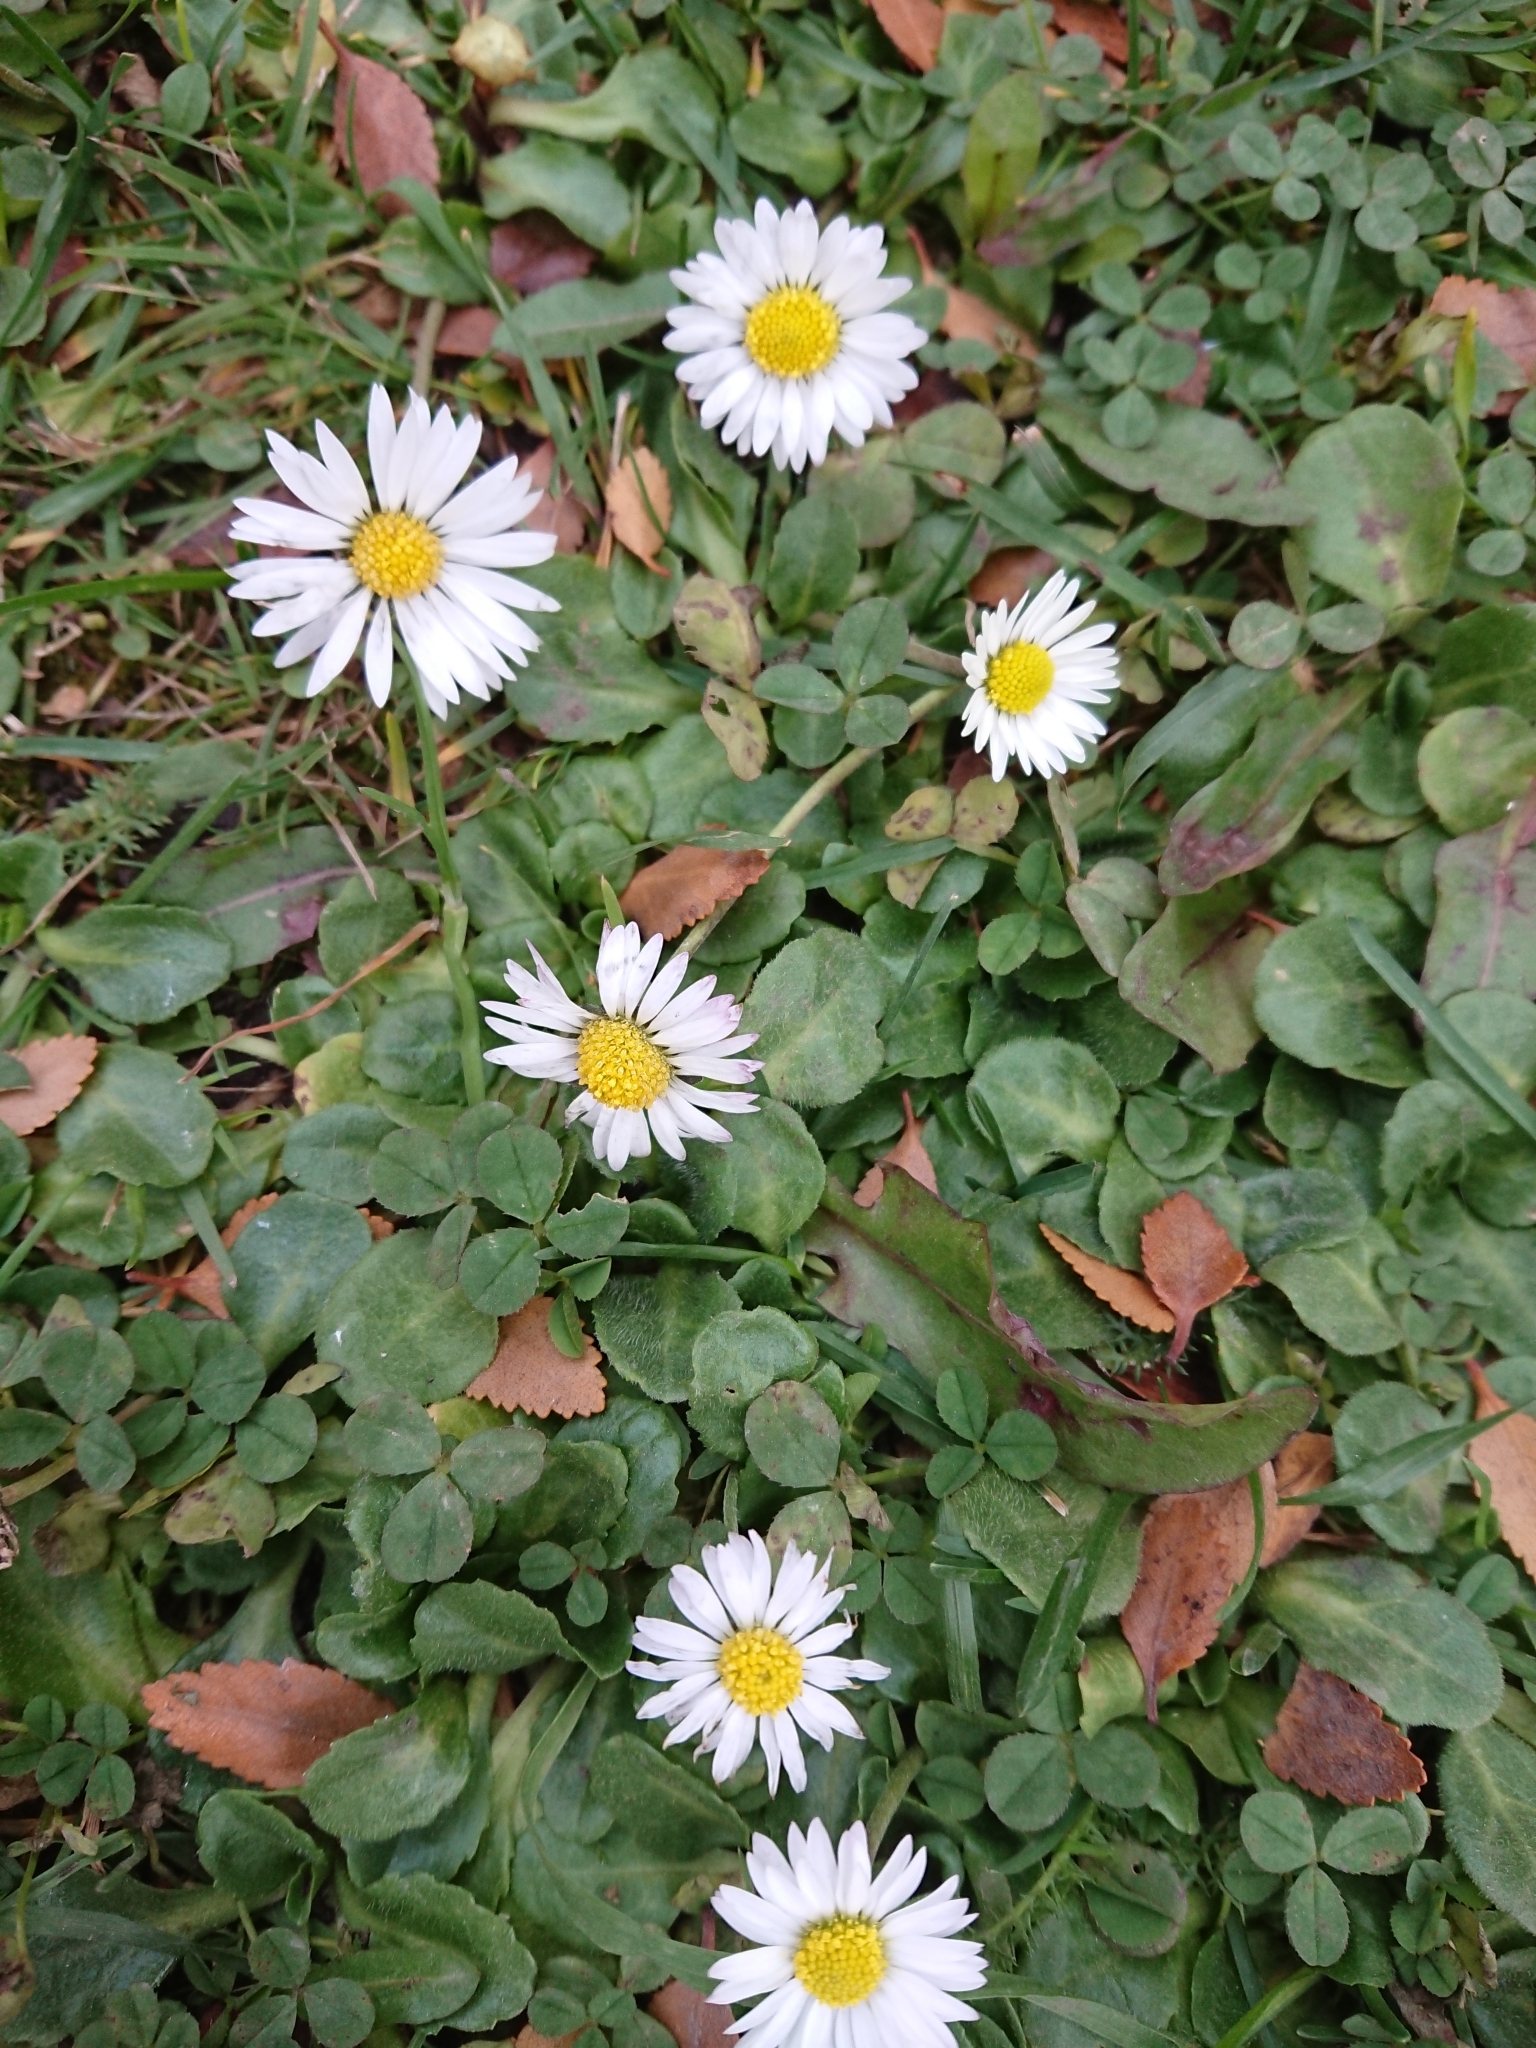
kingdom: Plantae
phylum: Tracheophyta
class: Magnoliopsida
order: Asterales
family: Asteraceae
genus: Bellis
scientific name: Bellis perennis
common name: Lawndaisy
